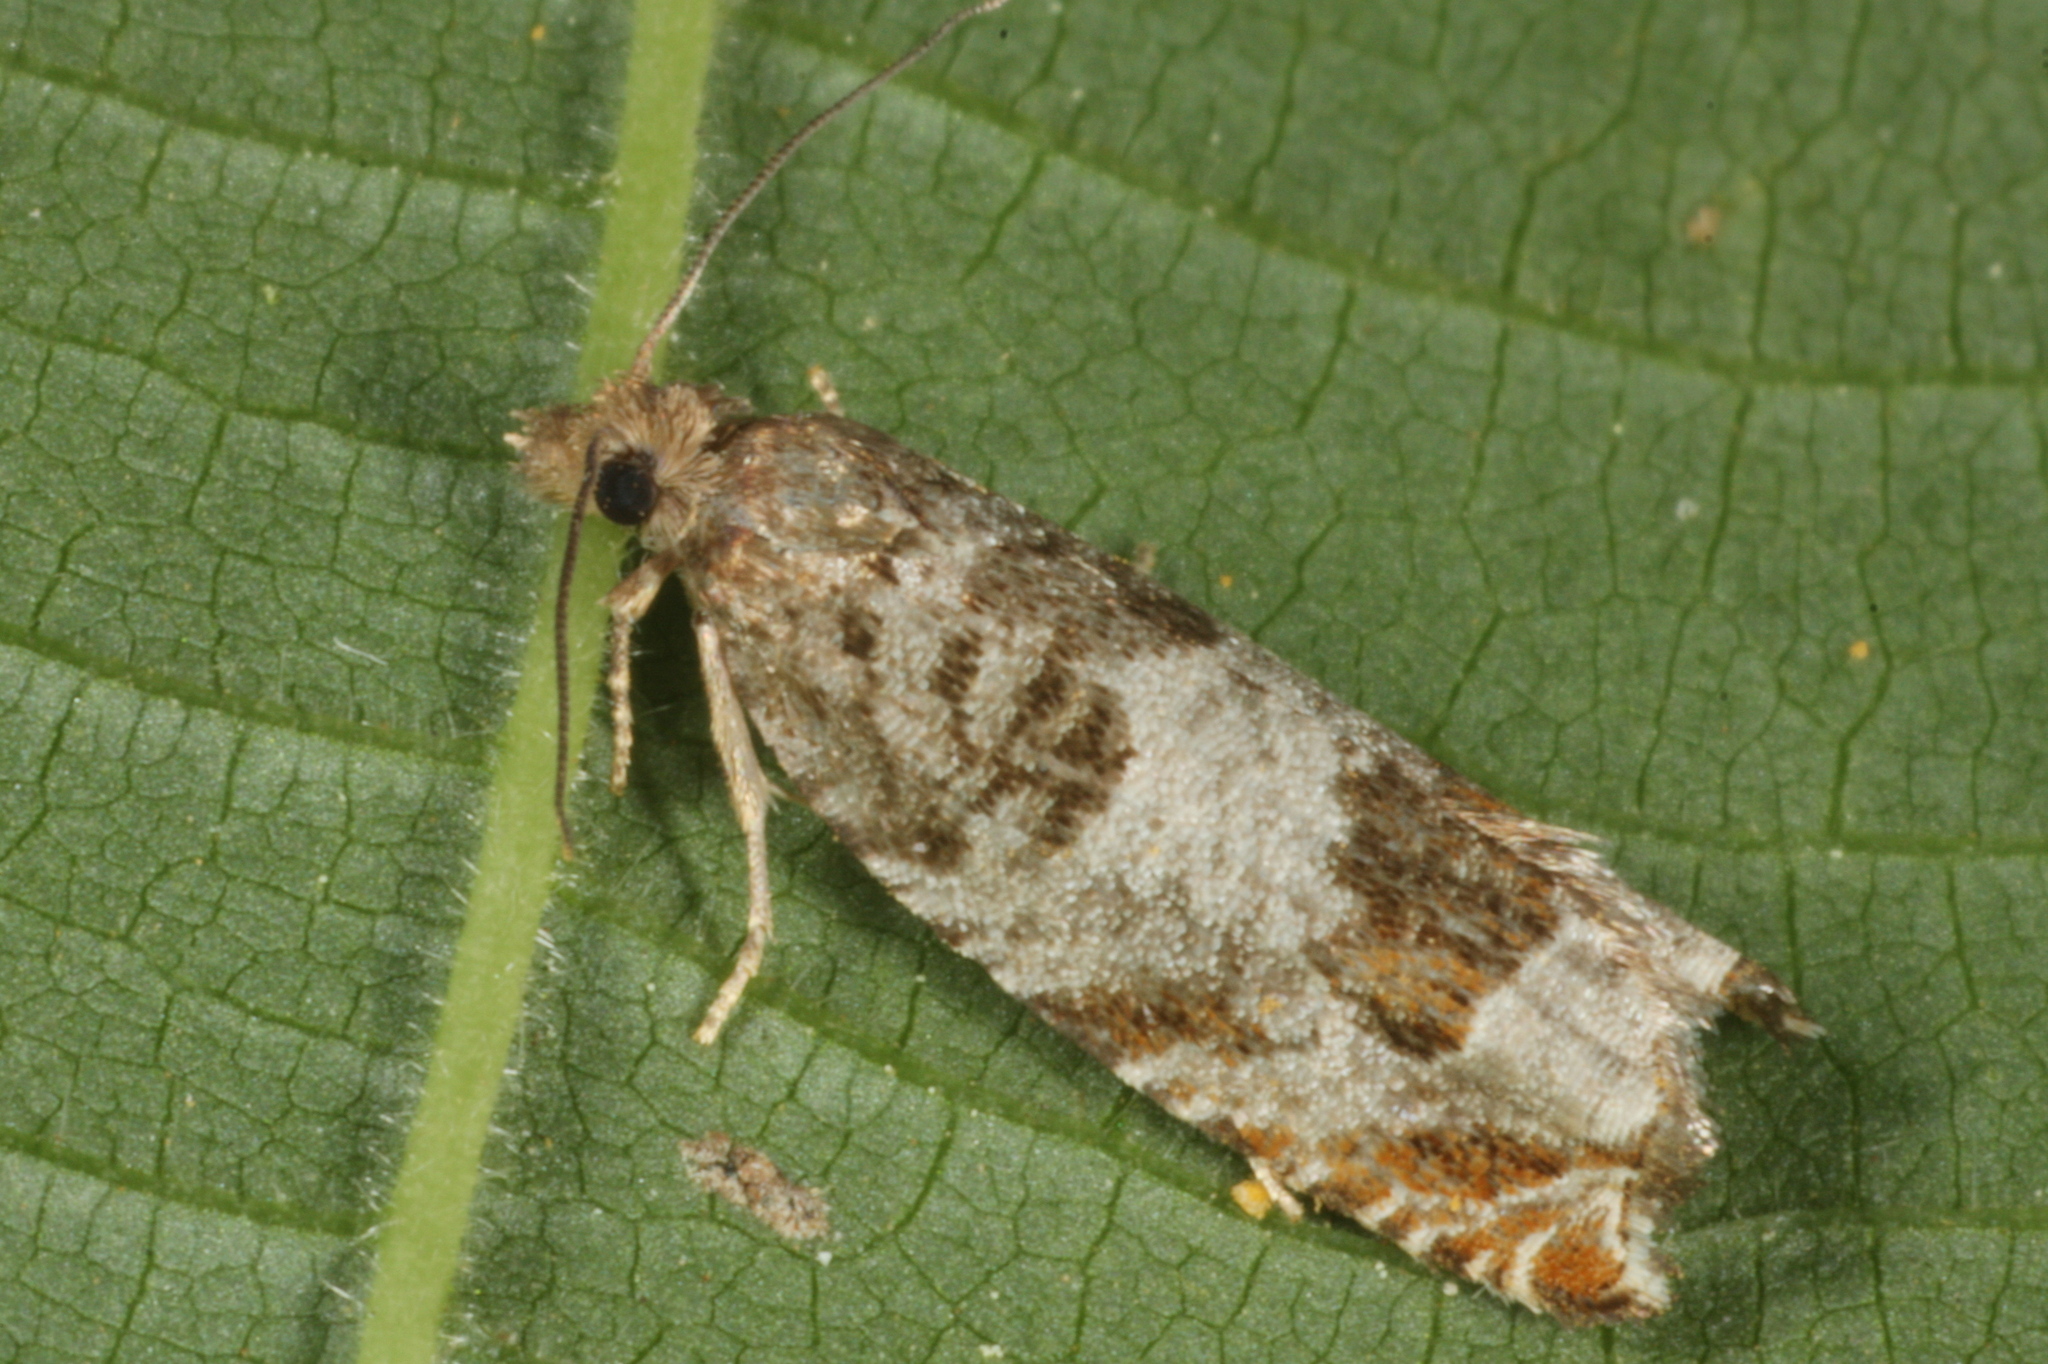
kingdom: Animalia
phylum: Arthropoda
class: Insecta
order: Lepidoptera
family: Tortricidae
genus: Ancylis
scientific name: Ancylis achatana
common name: Triangle-marked roller
